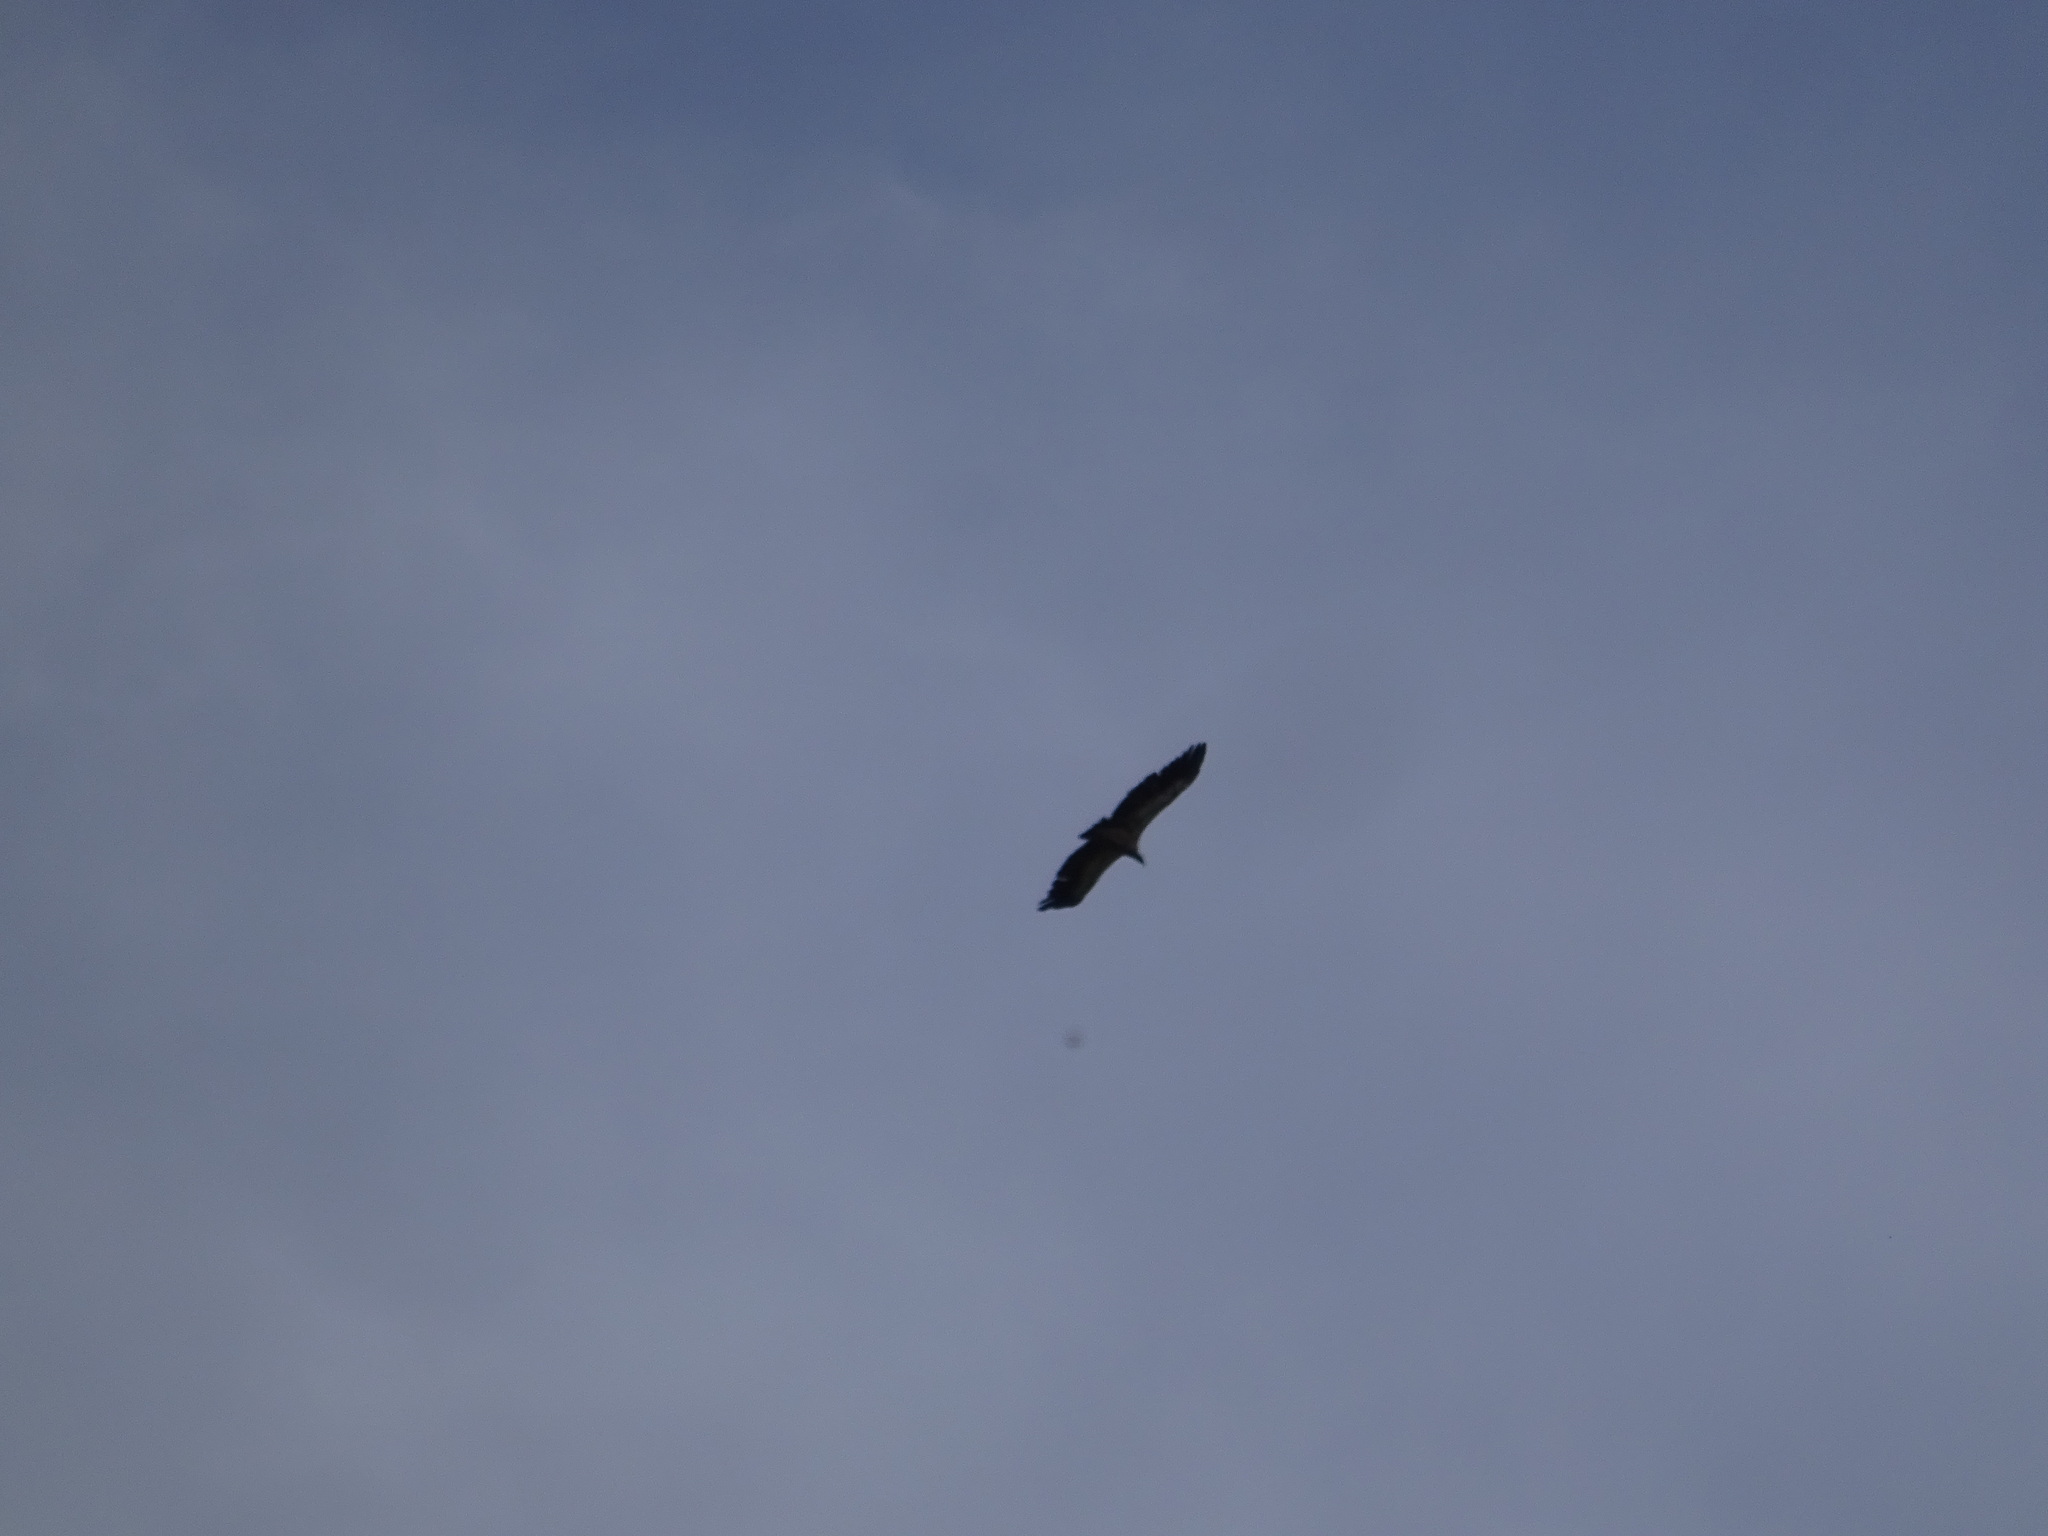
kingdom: Animalia
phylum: Chordata
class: Aves
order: Accipitriformes
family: Accipitridae
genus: Gyps
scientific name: Gyps fulvus
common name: Griffon vulture
